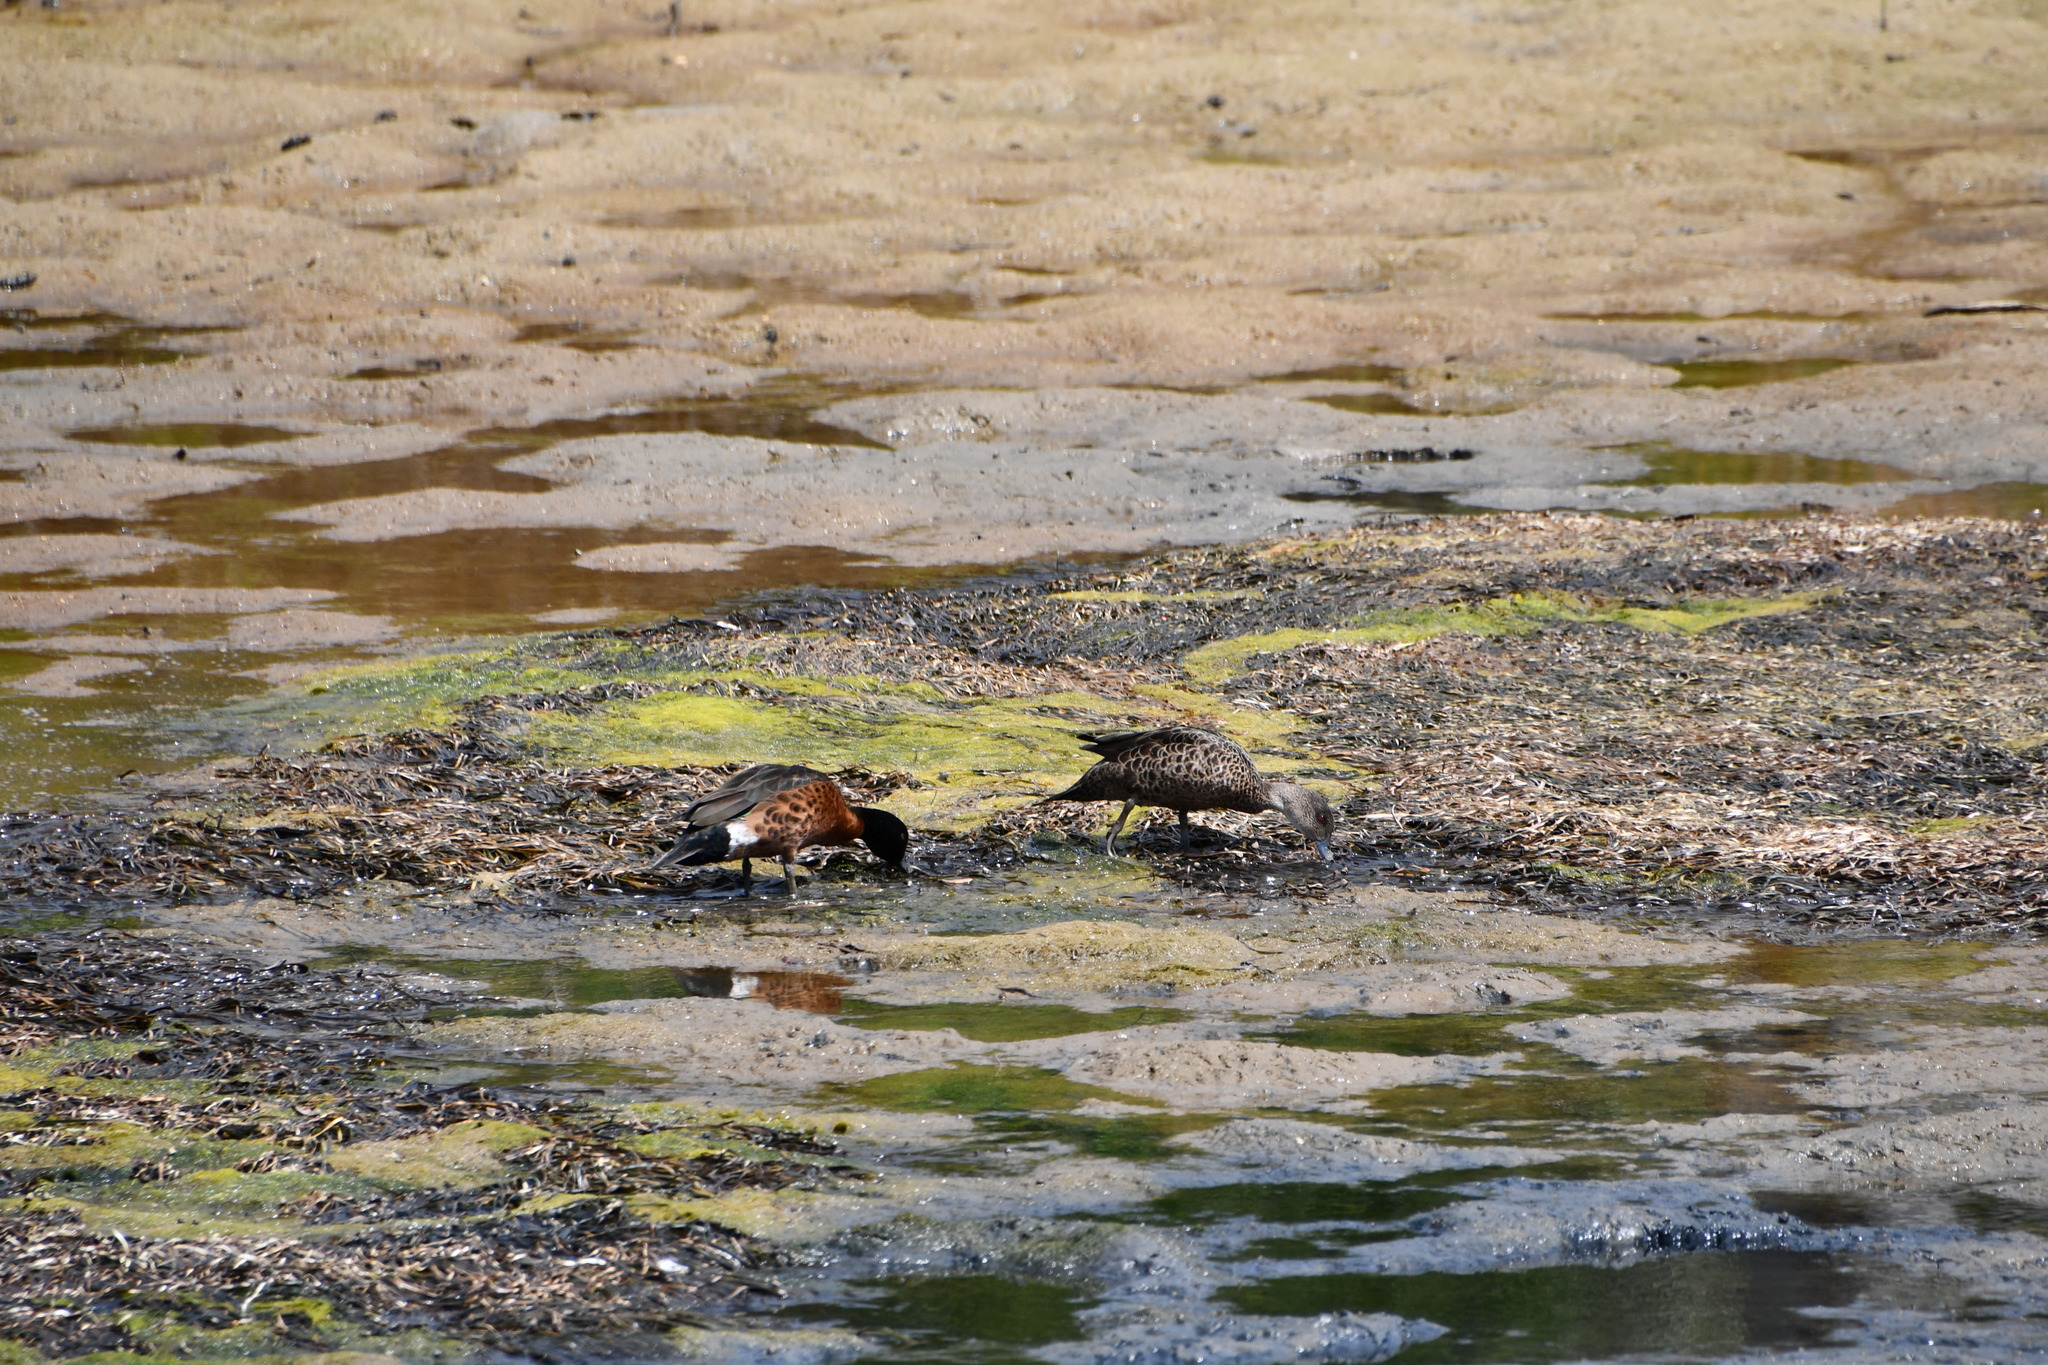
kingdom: Animalia
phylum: Chordata
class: Aves
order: Anseriformes
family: Anatidae
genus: Anas
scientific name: Anas castanea
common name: Chestnut teal
